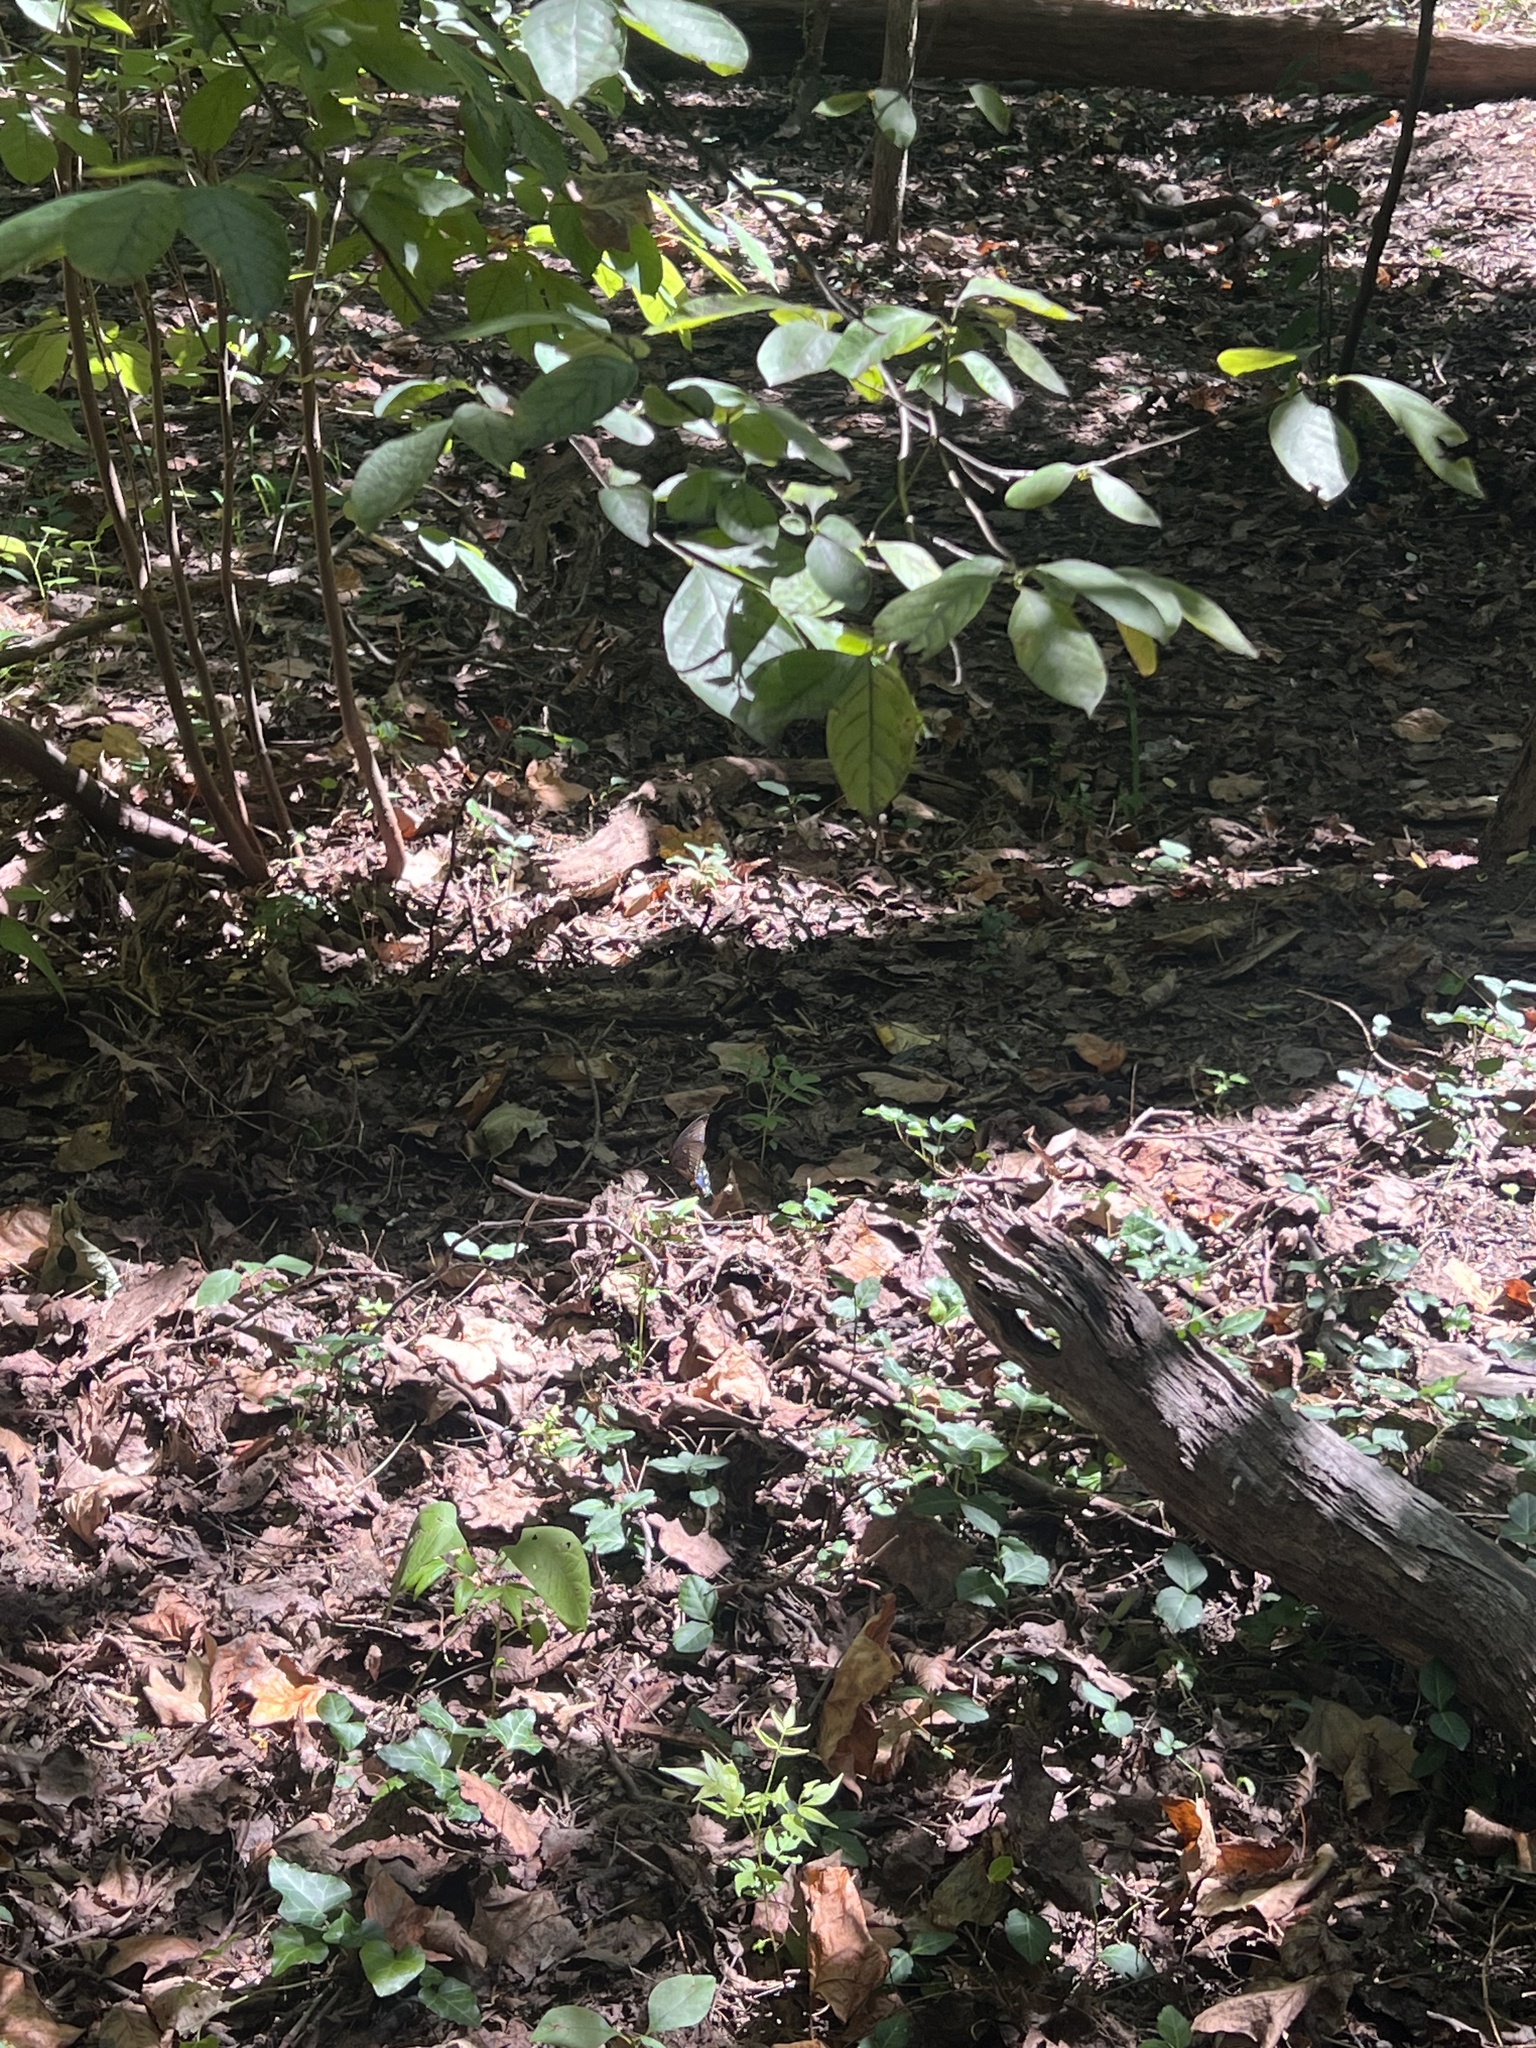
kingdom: Animalia
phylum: Arthropoda
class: Insecta
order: Lepidoptera
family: Papilionidae
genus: Papilio
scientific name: Papilio troilus
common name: Spicebush swallowtail
